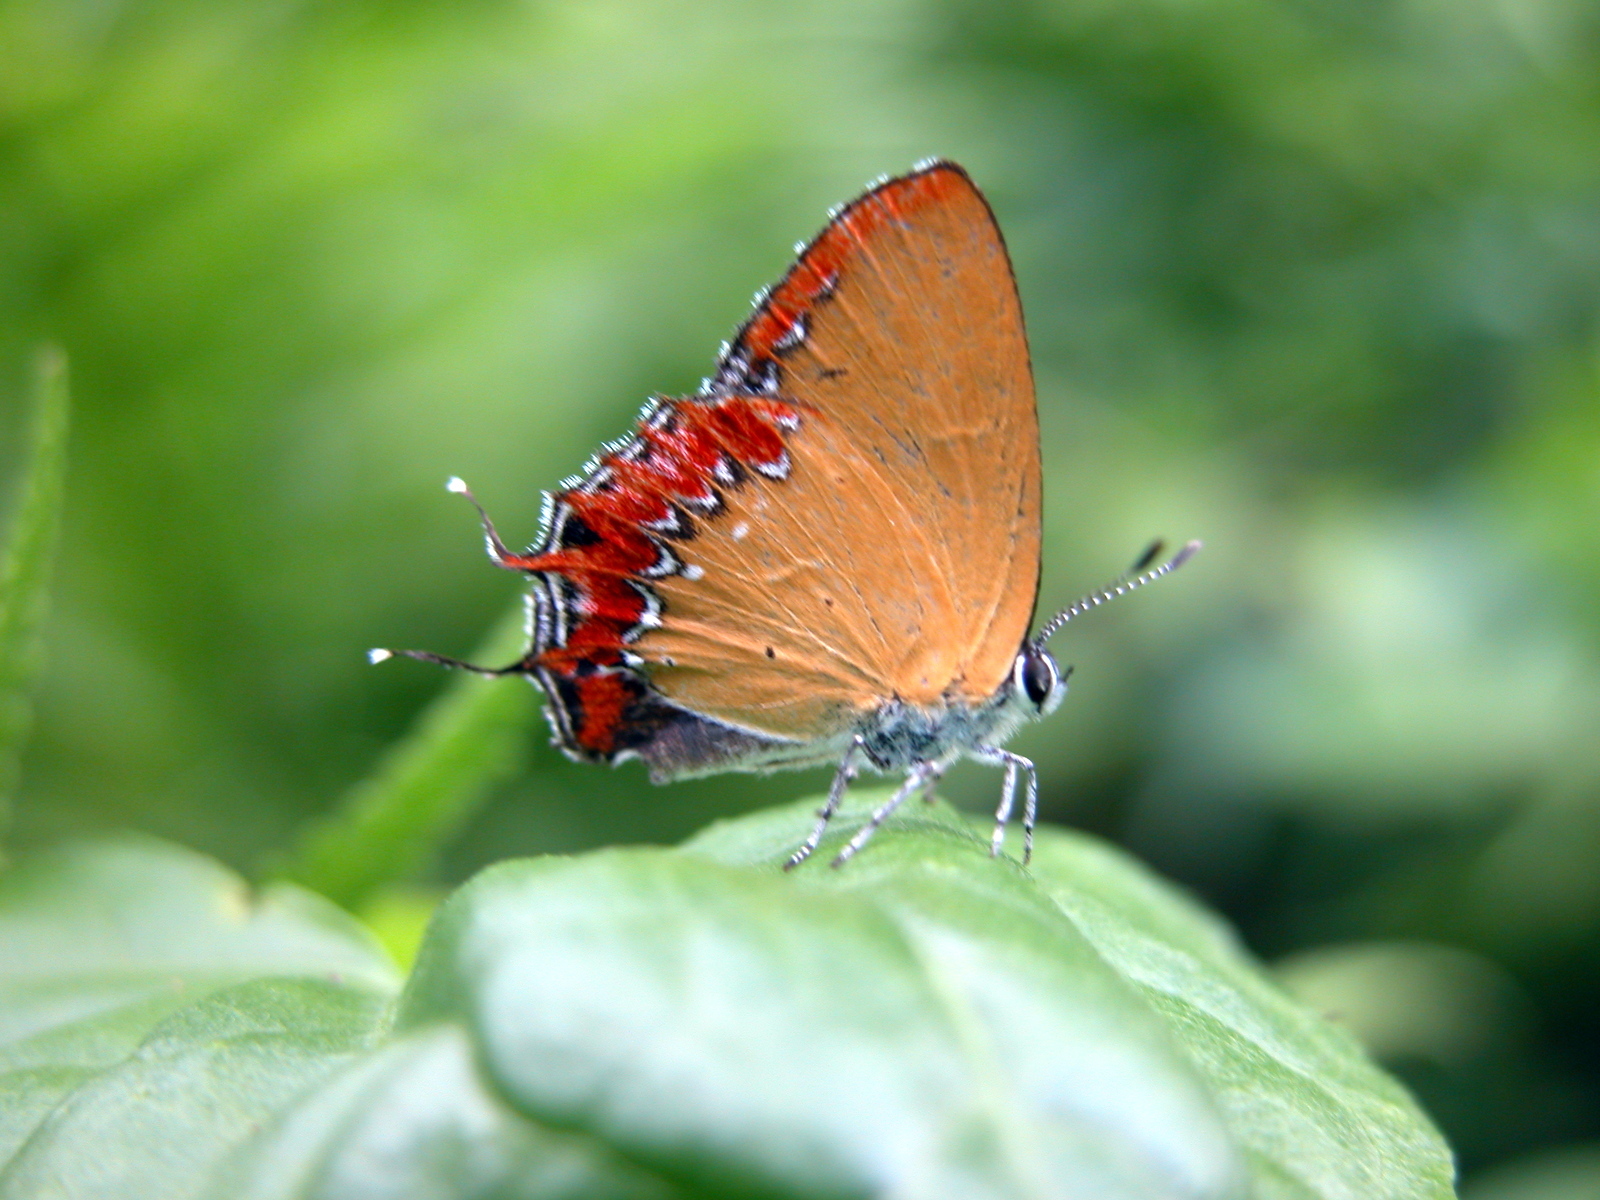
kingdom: Animalia
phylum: Arthropoda
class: Insecta
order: Lepidoptera
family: Lycaenidae
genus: Heliophorus
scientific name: Heliophorus epicles
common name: Purple sapphire
